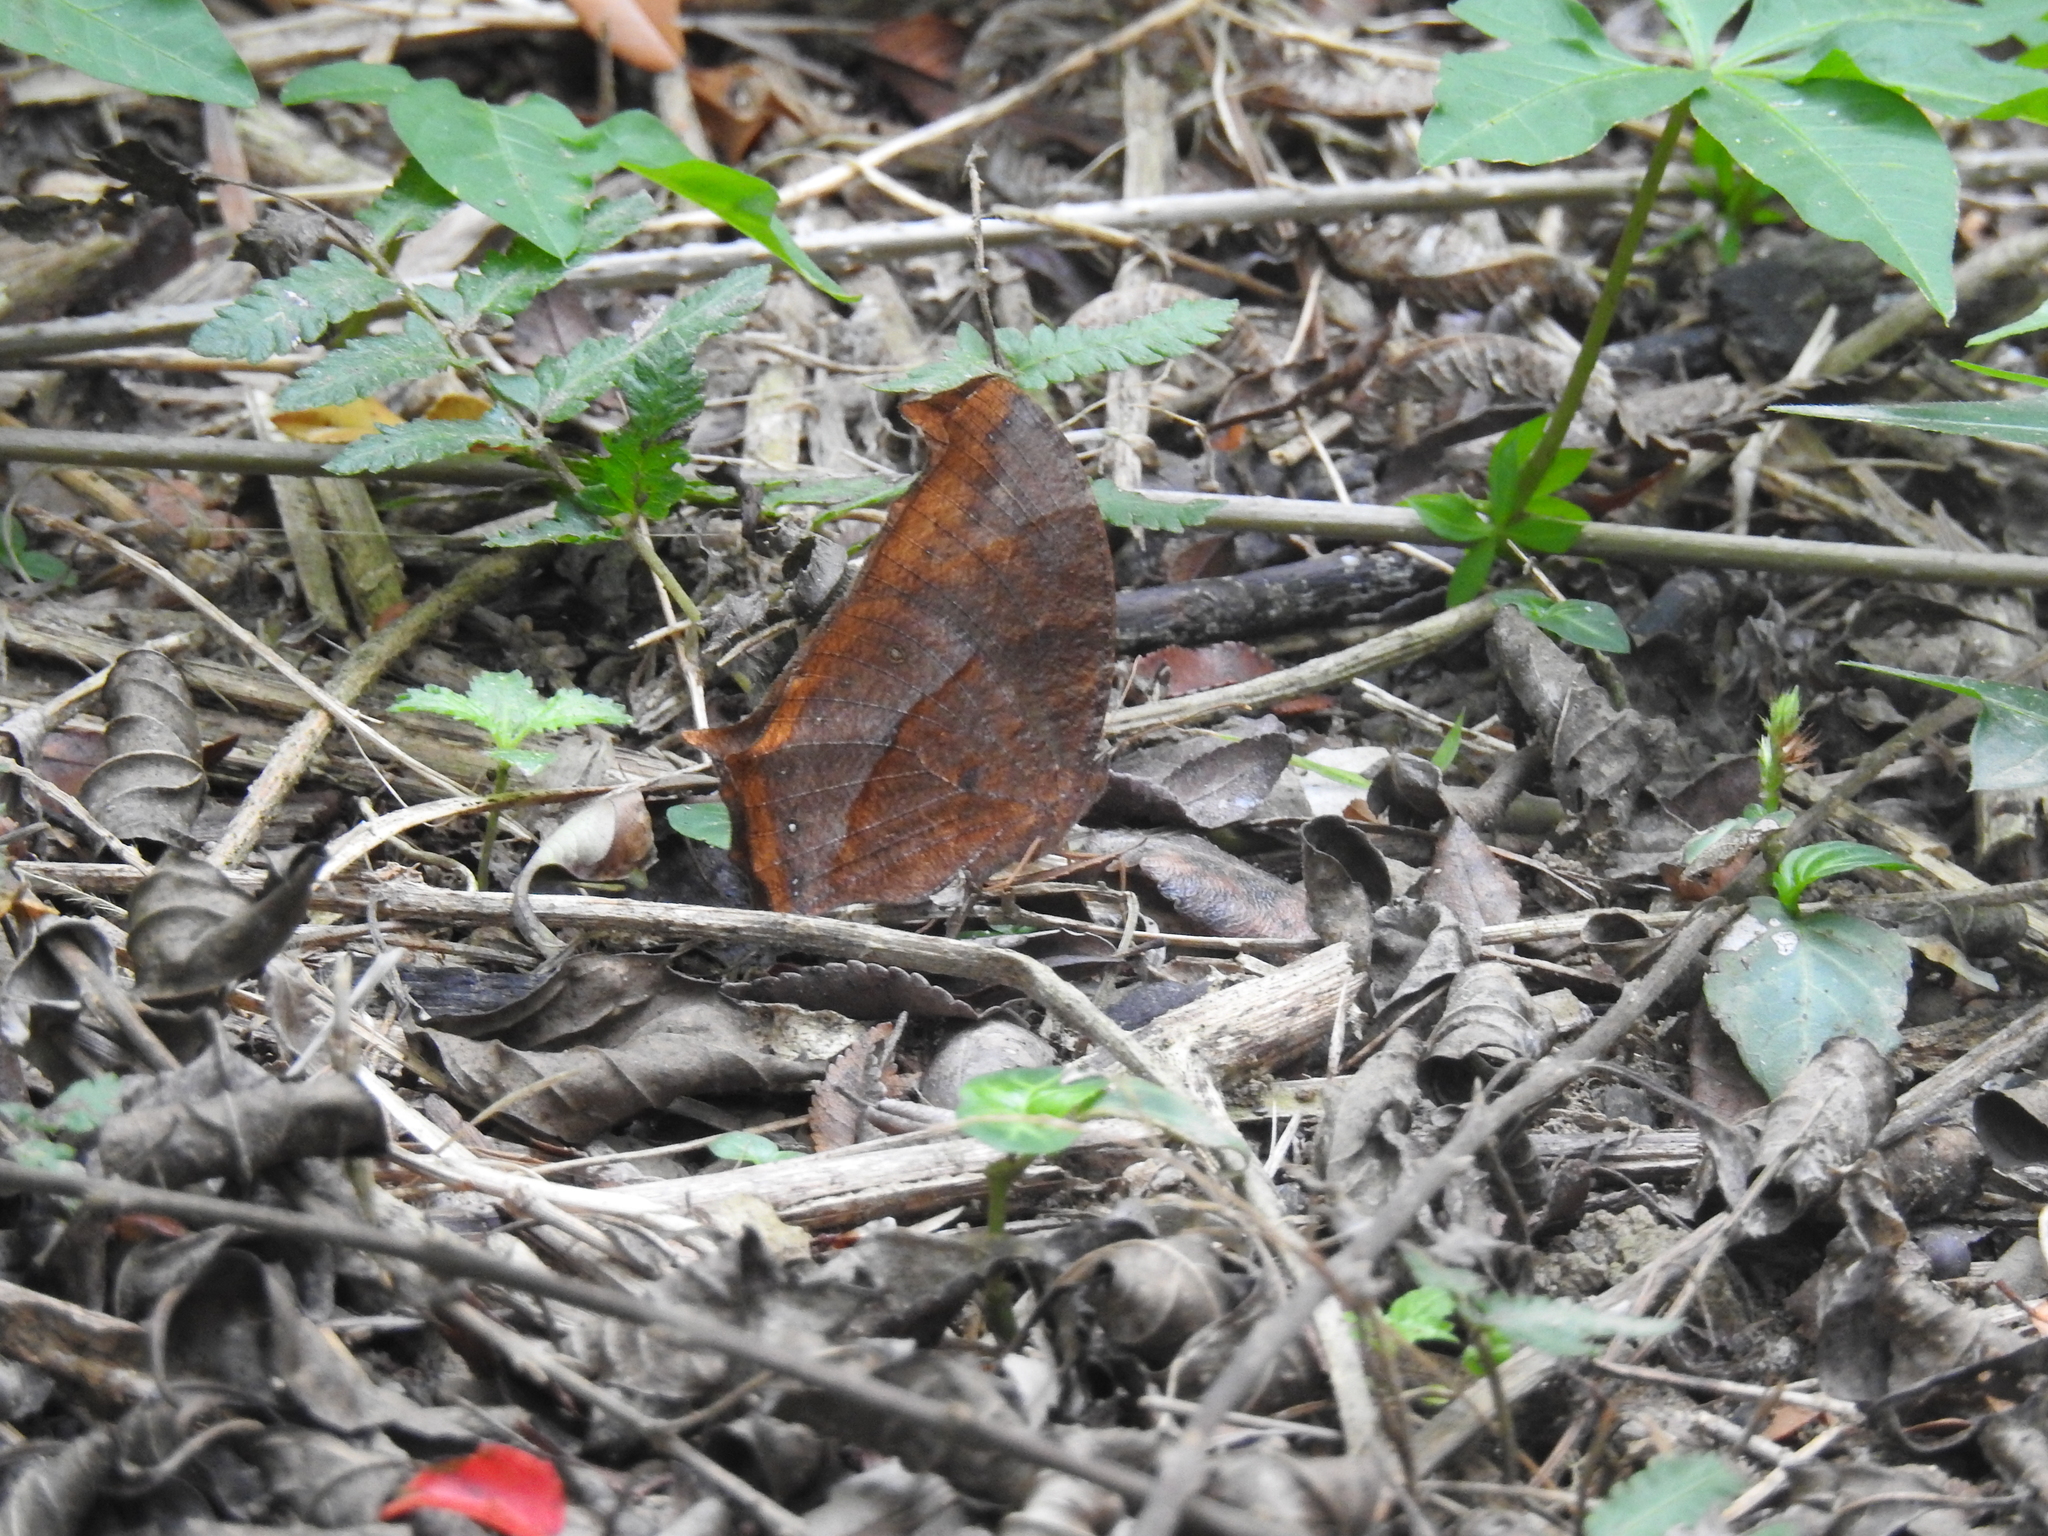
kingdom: Animalia
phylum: Arthropoda
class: Insecta
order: Lepidoptera
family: Nymphalidae
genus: Melanitis
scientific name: Melanitis phedima
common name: Dark evening brown
